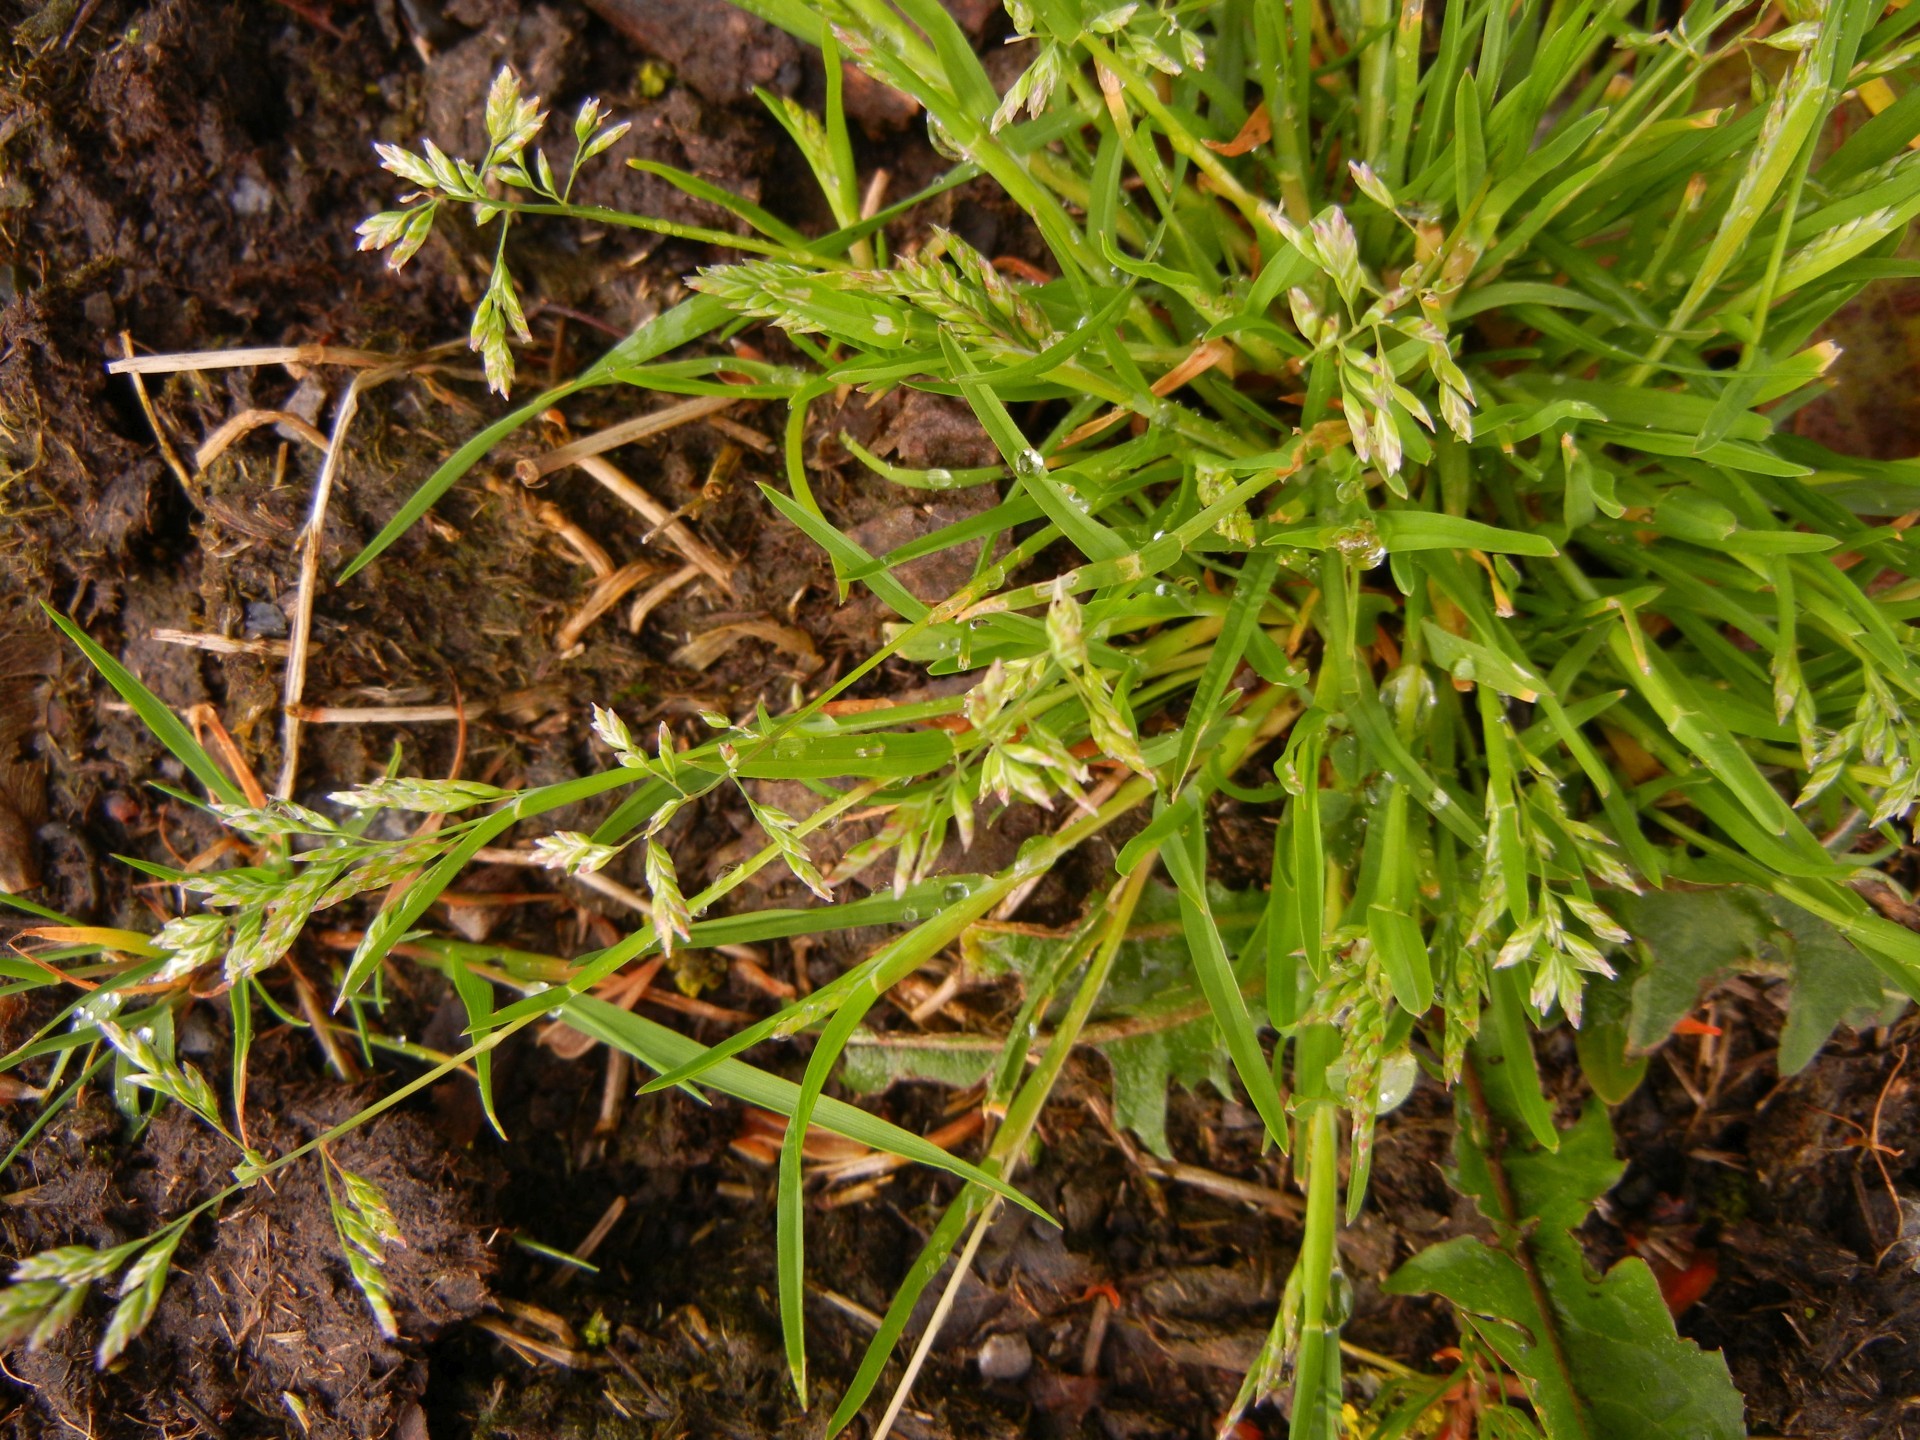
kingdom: Plantae
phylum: Tracheophyta
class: Liliopsida
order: Poales
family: Poaceae
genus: Poa
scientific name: Poa annua
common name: Annual bluegrass
